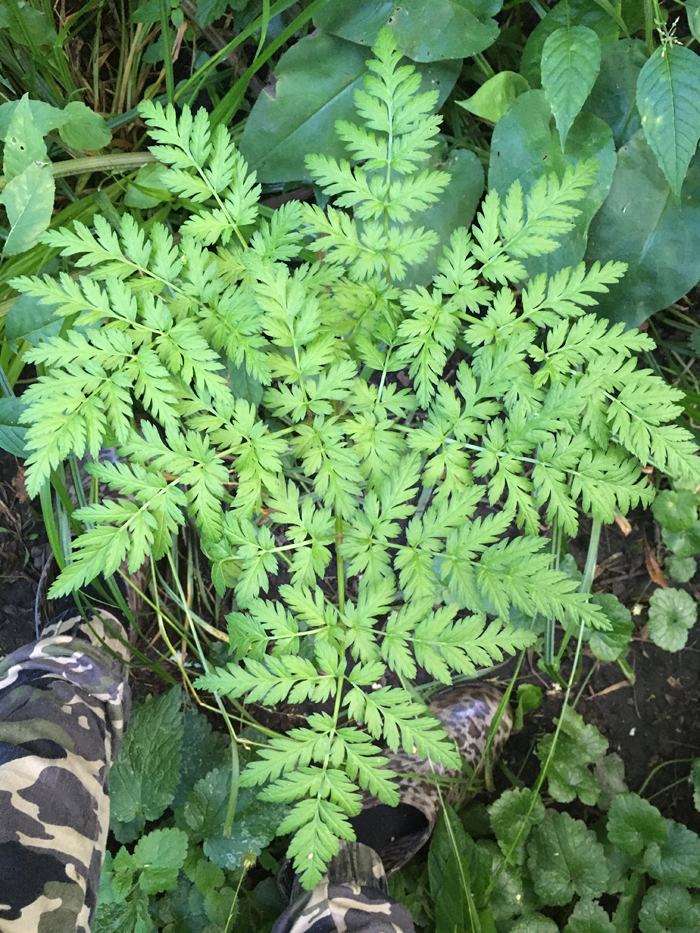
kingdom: Plantae
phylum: Tracheophyta
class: Magnoliopsida
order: Apiales
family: Apiaceae
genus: Anthriscus
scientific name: Anthriscus sylvestris
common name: Cow parsley
